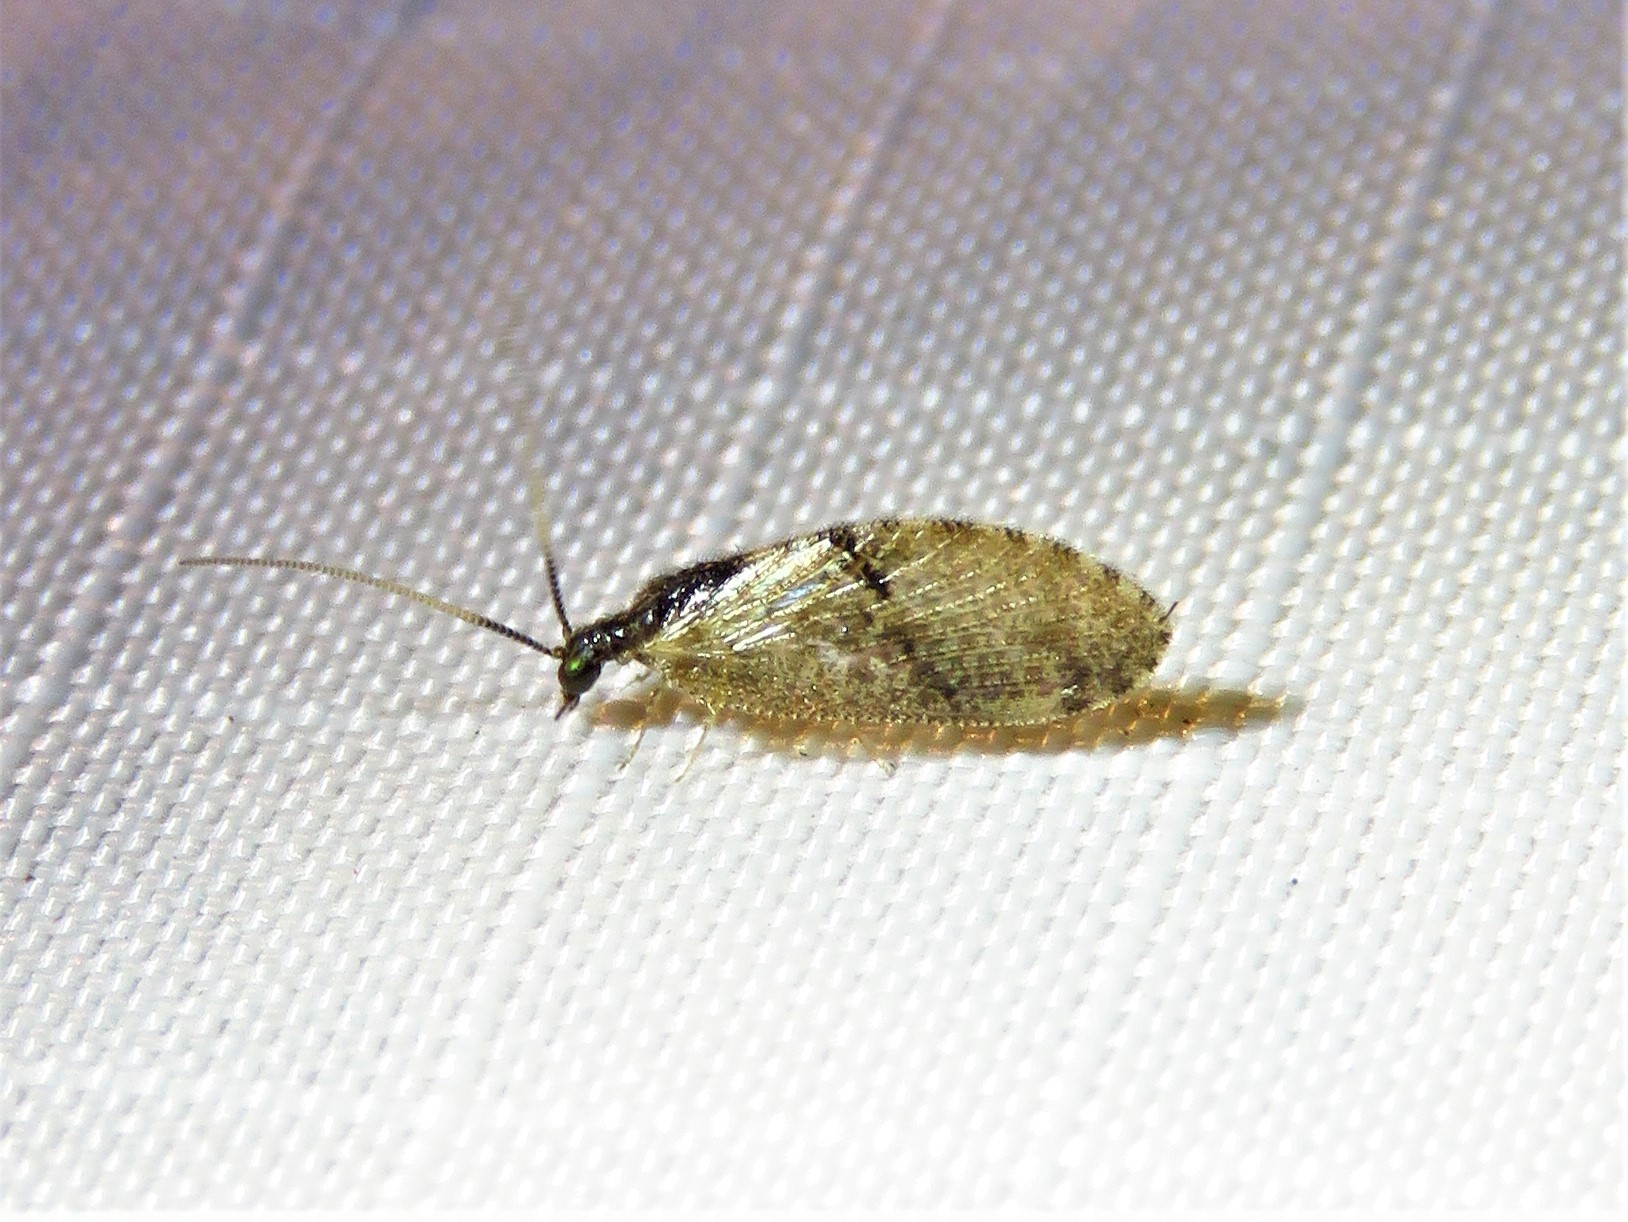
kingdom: Animalia
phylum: Arthropoda
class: Insecta
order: Neuroptera
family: Hemerobiidae
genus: Sympherobius
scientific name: Sympherobius barberi
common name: Brown lacewing
